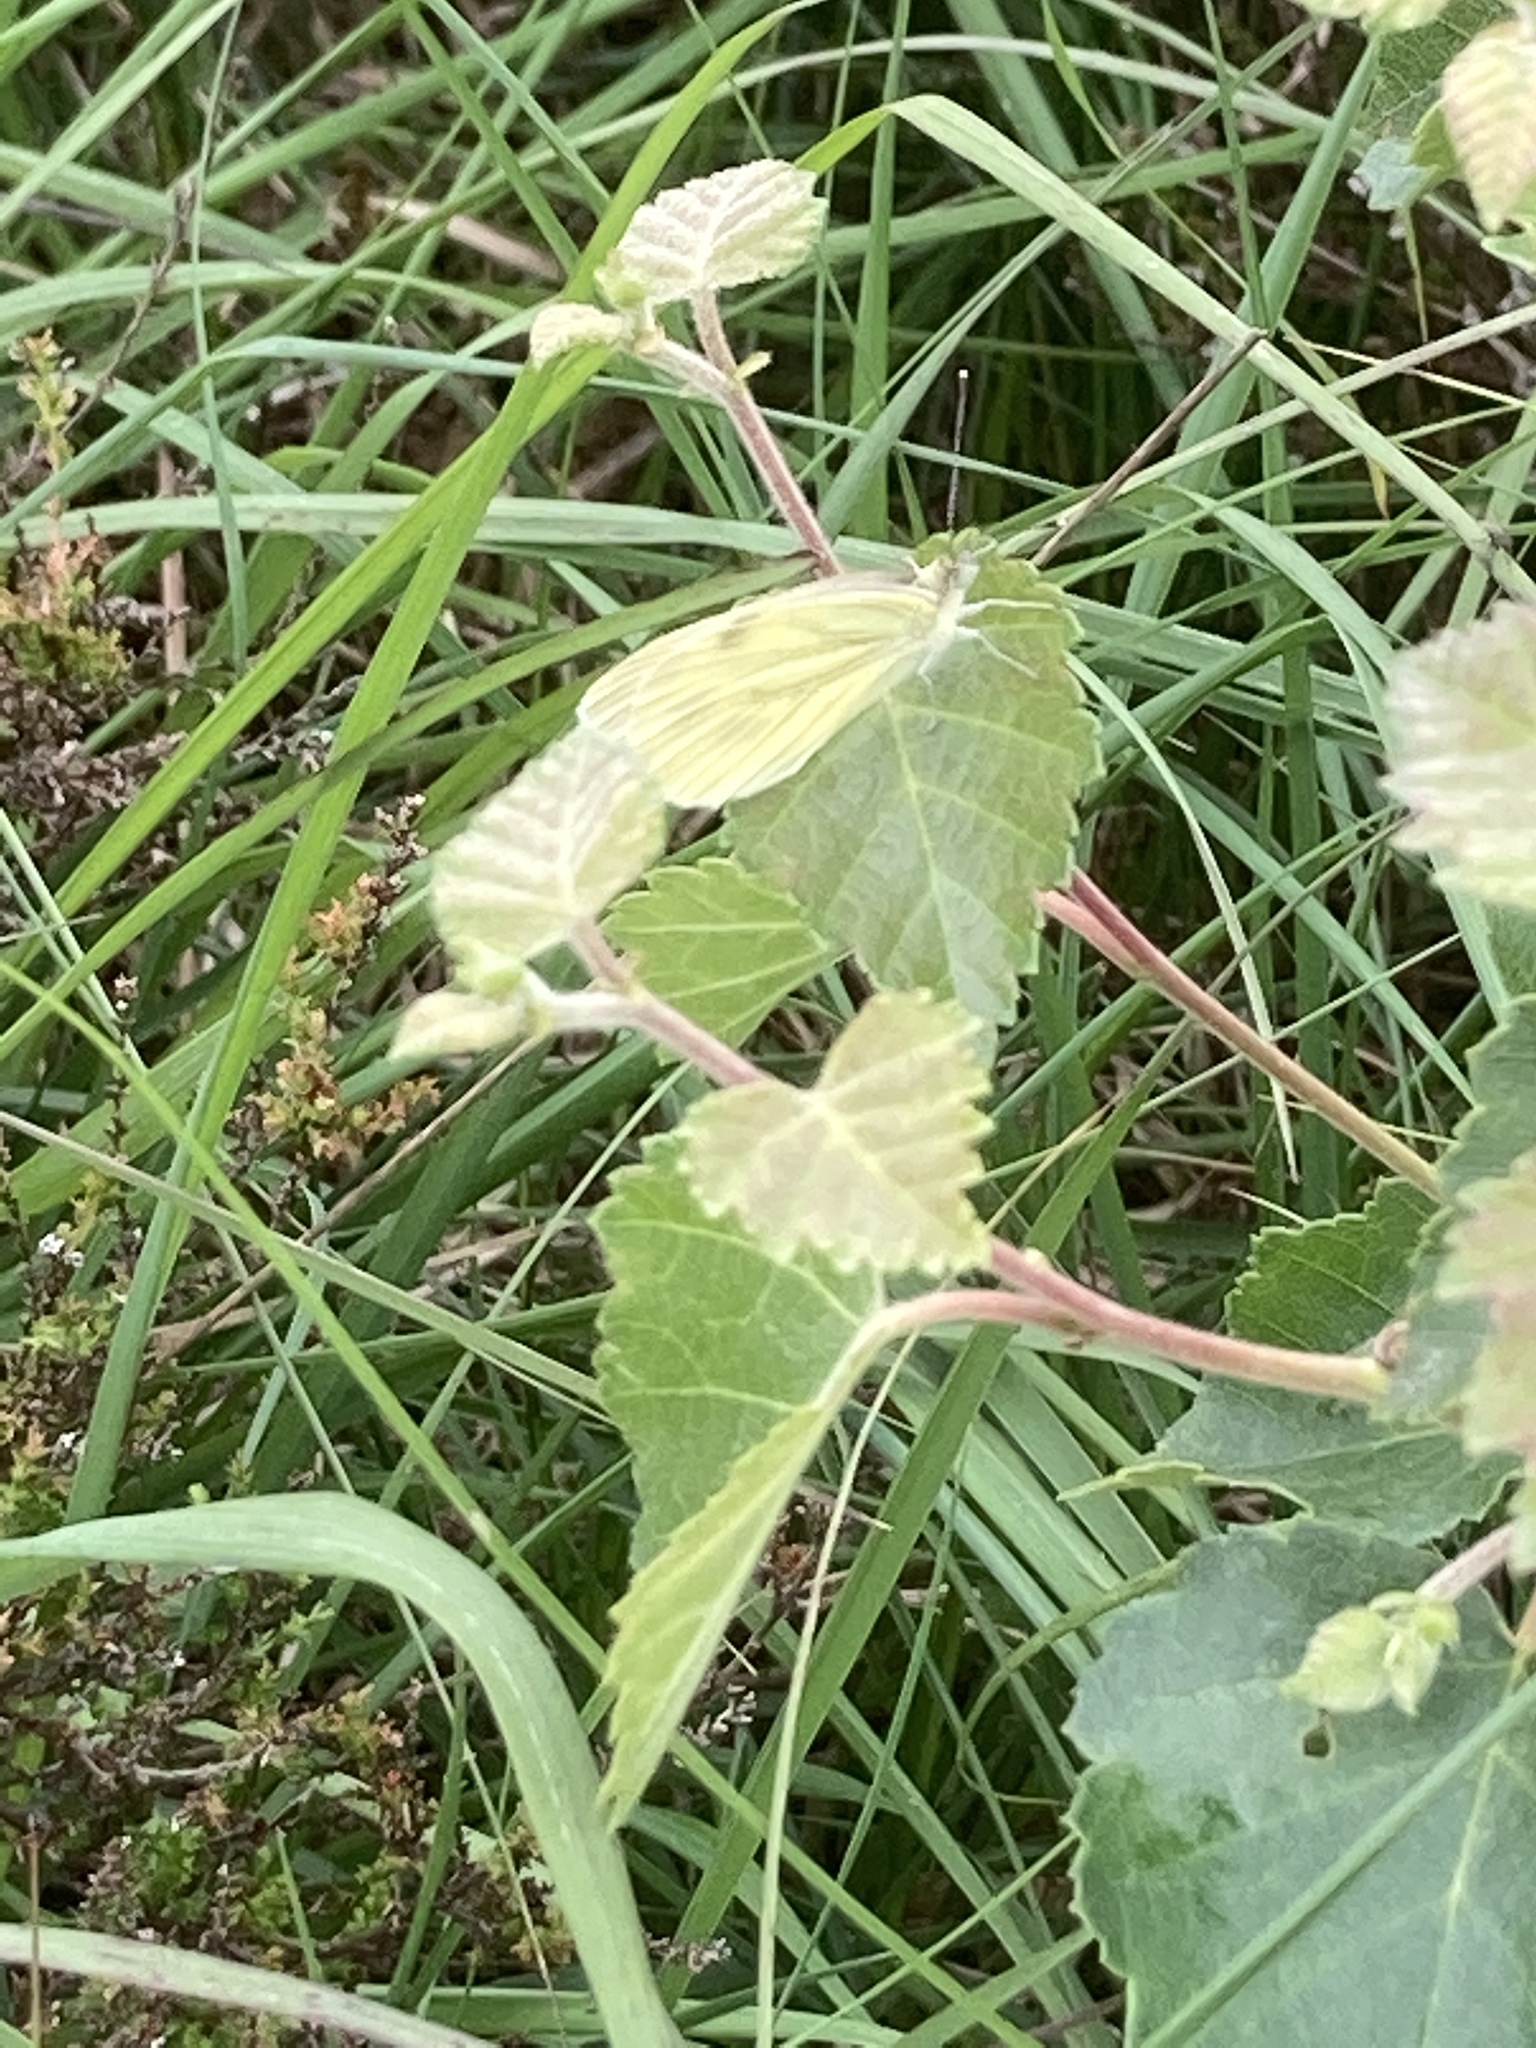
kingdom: Animalia
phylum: Arthropoda
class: Insecta
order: Lepidoptera
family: Pieridae
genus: Pieris
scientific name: Pieris napi
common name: Green-veined white
